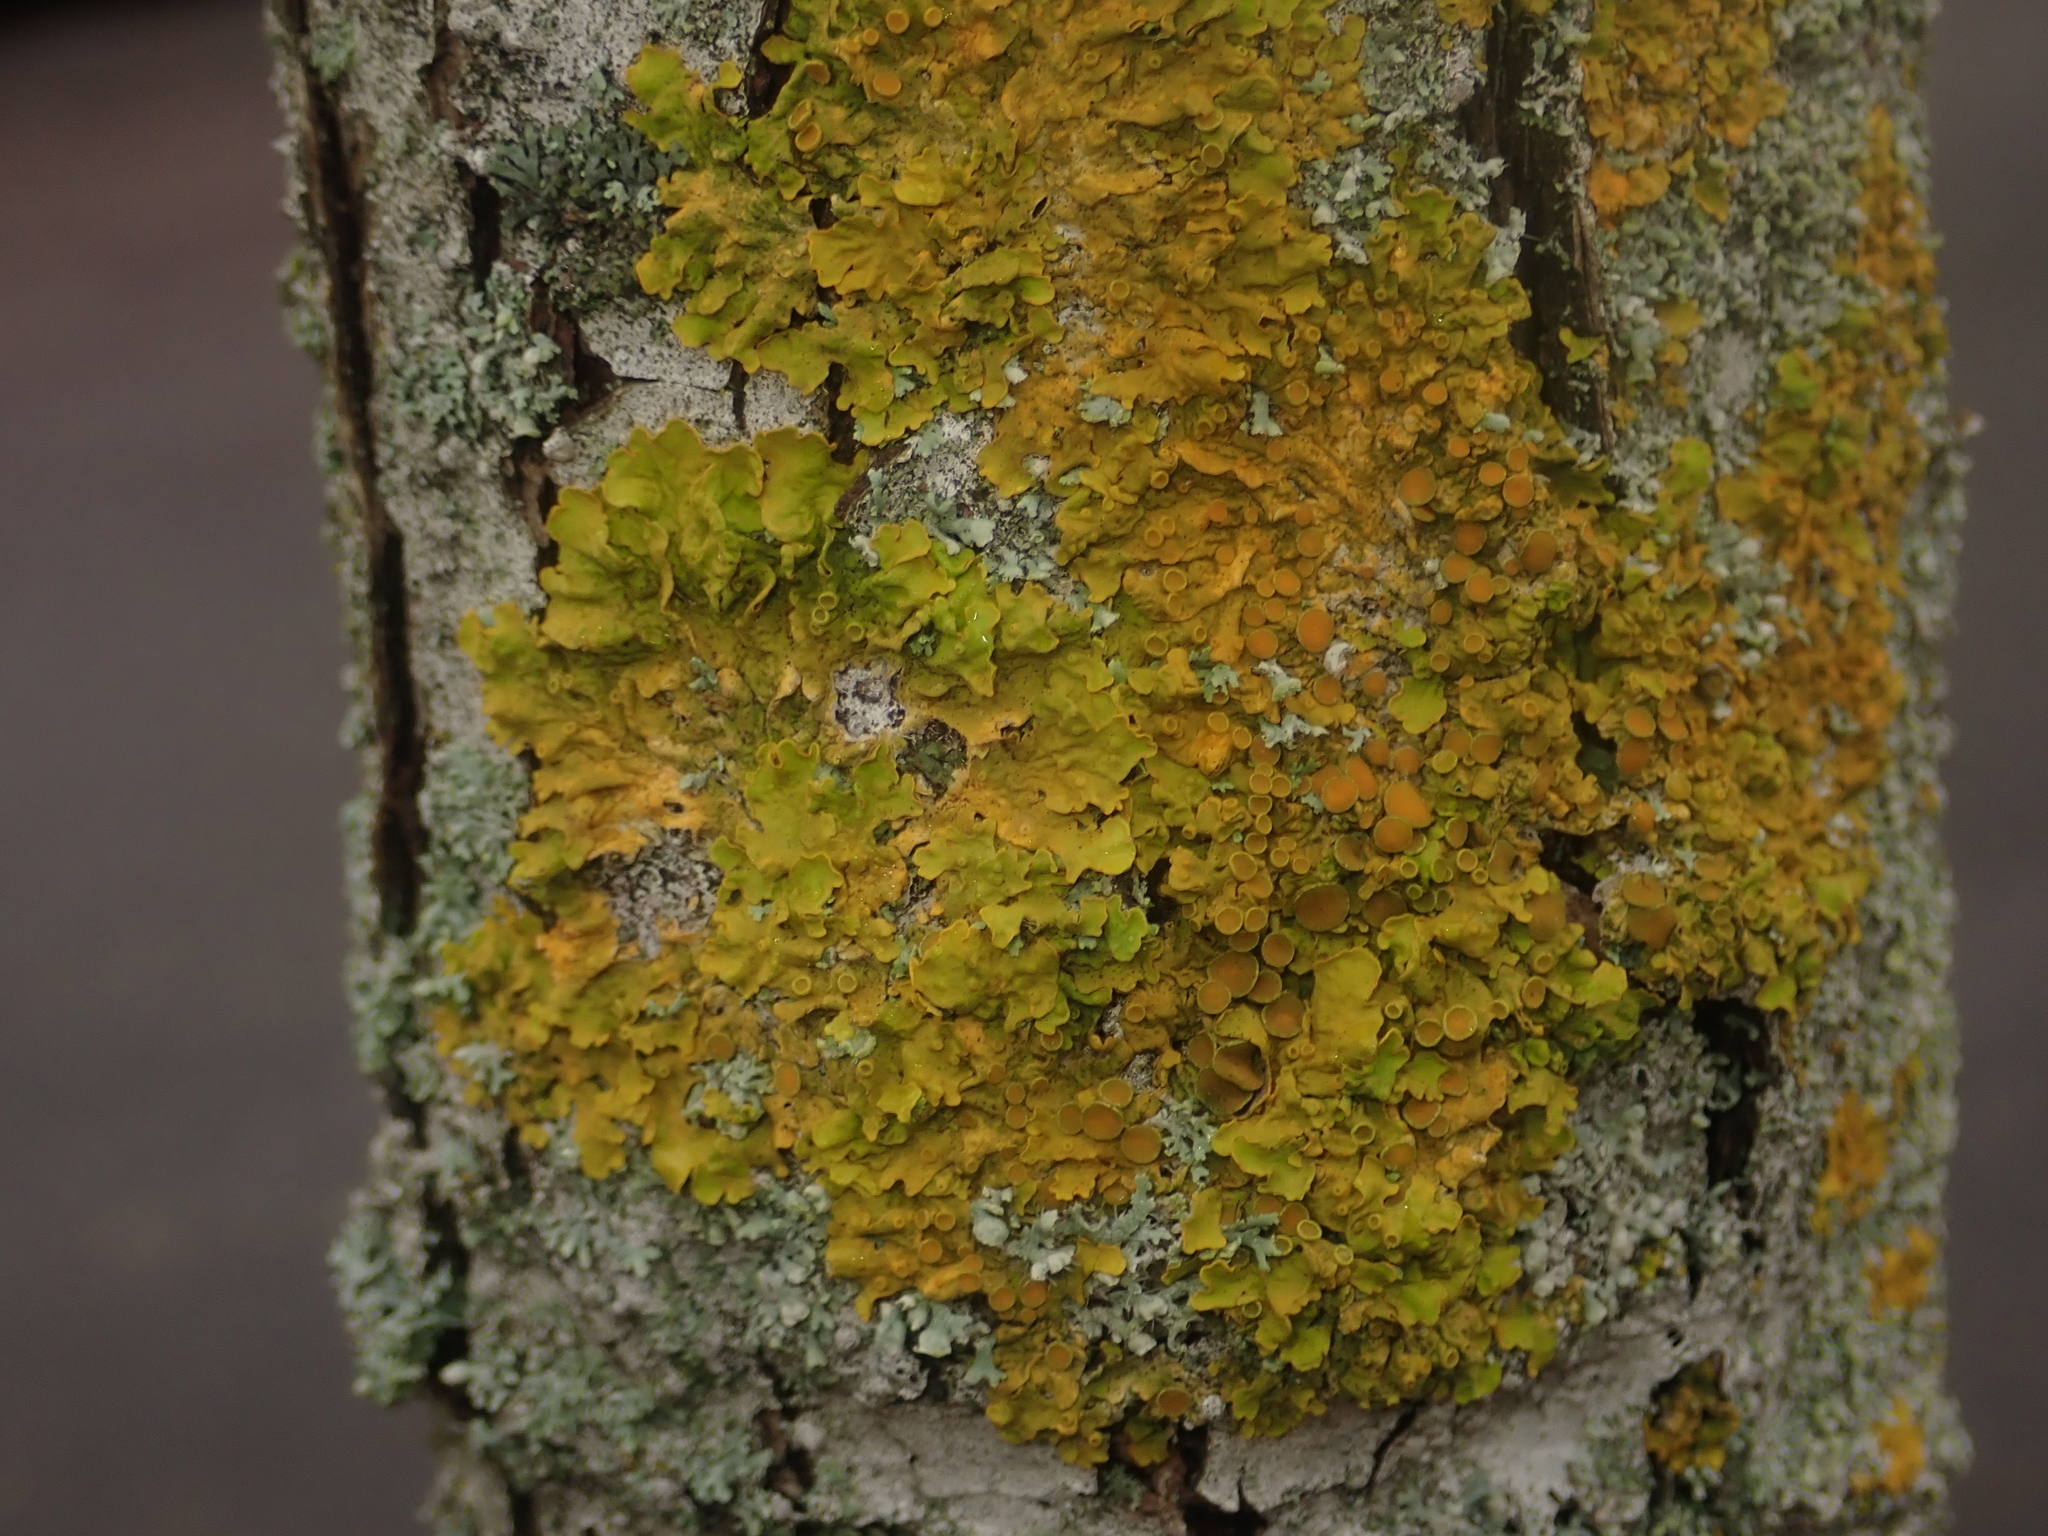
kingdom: Fungi
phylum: Ascomycota
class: Lecanoromycetes
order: Teloschistales
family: Teloschistaceae
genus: Xanthoria
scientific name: Xanthoria parietina
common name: Common orange lichen
